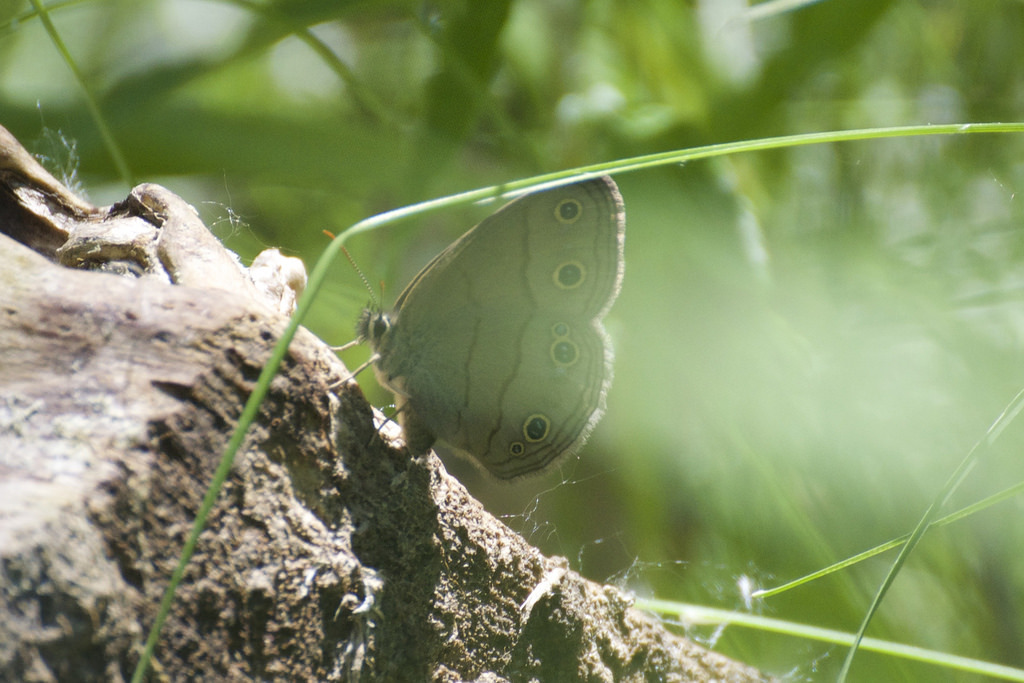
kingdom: Animalia
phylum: Arthropoda
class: Insecta
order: Lepidoptera
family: Nymphalidae
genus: Euptychia
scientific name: Euptychia cymela
